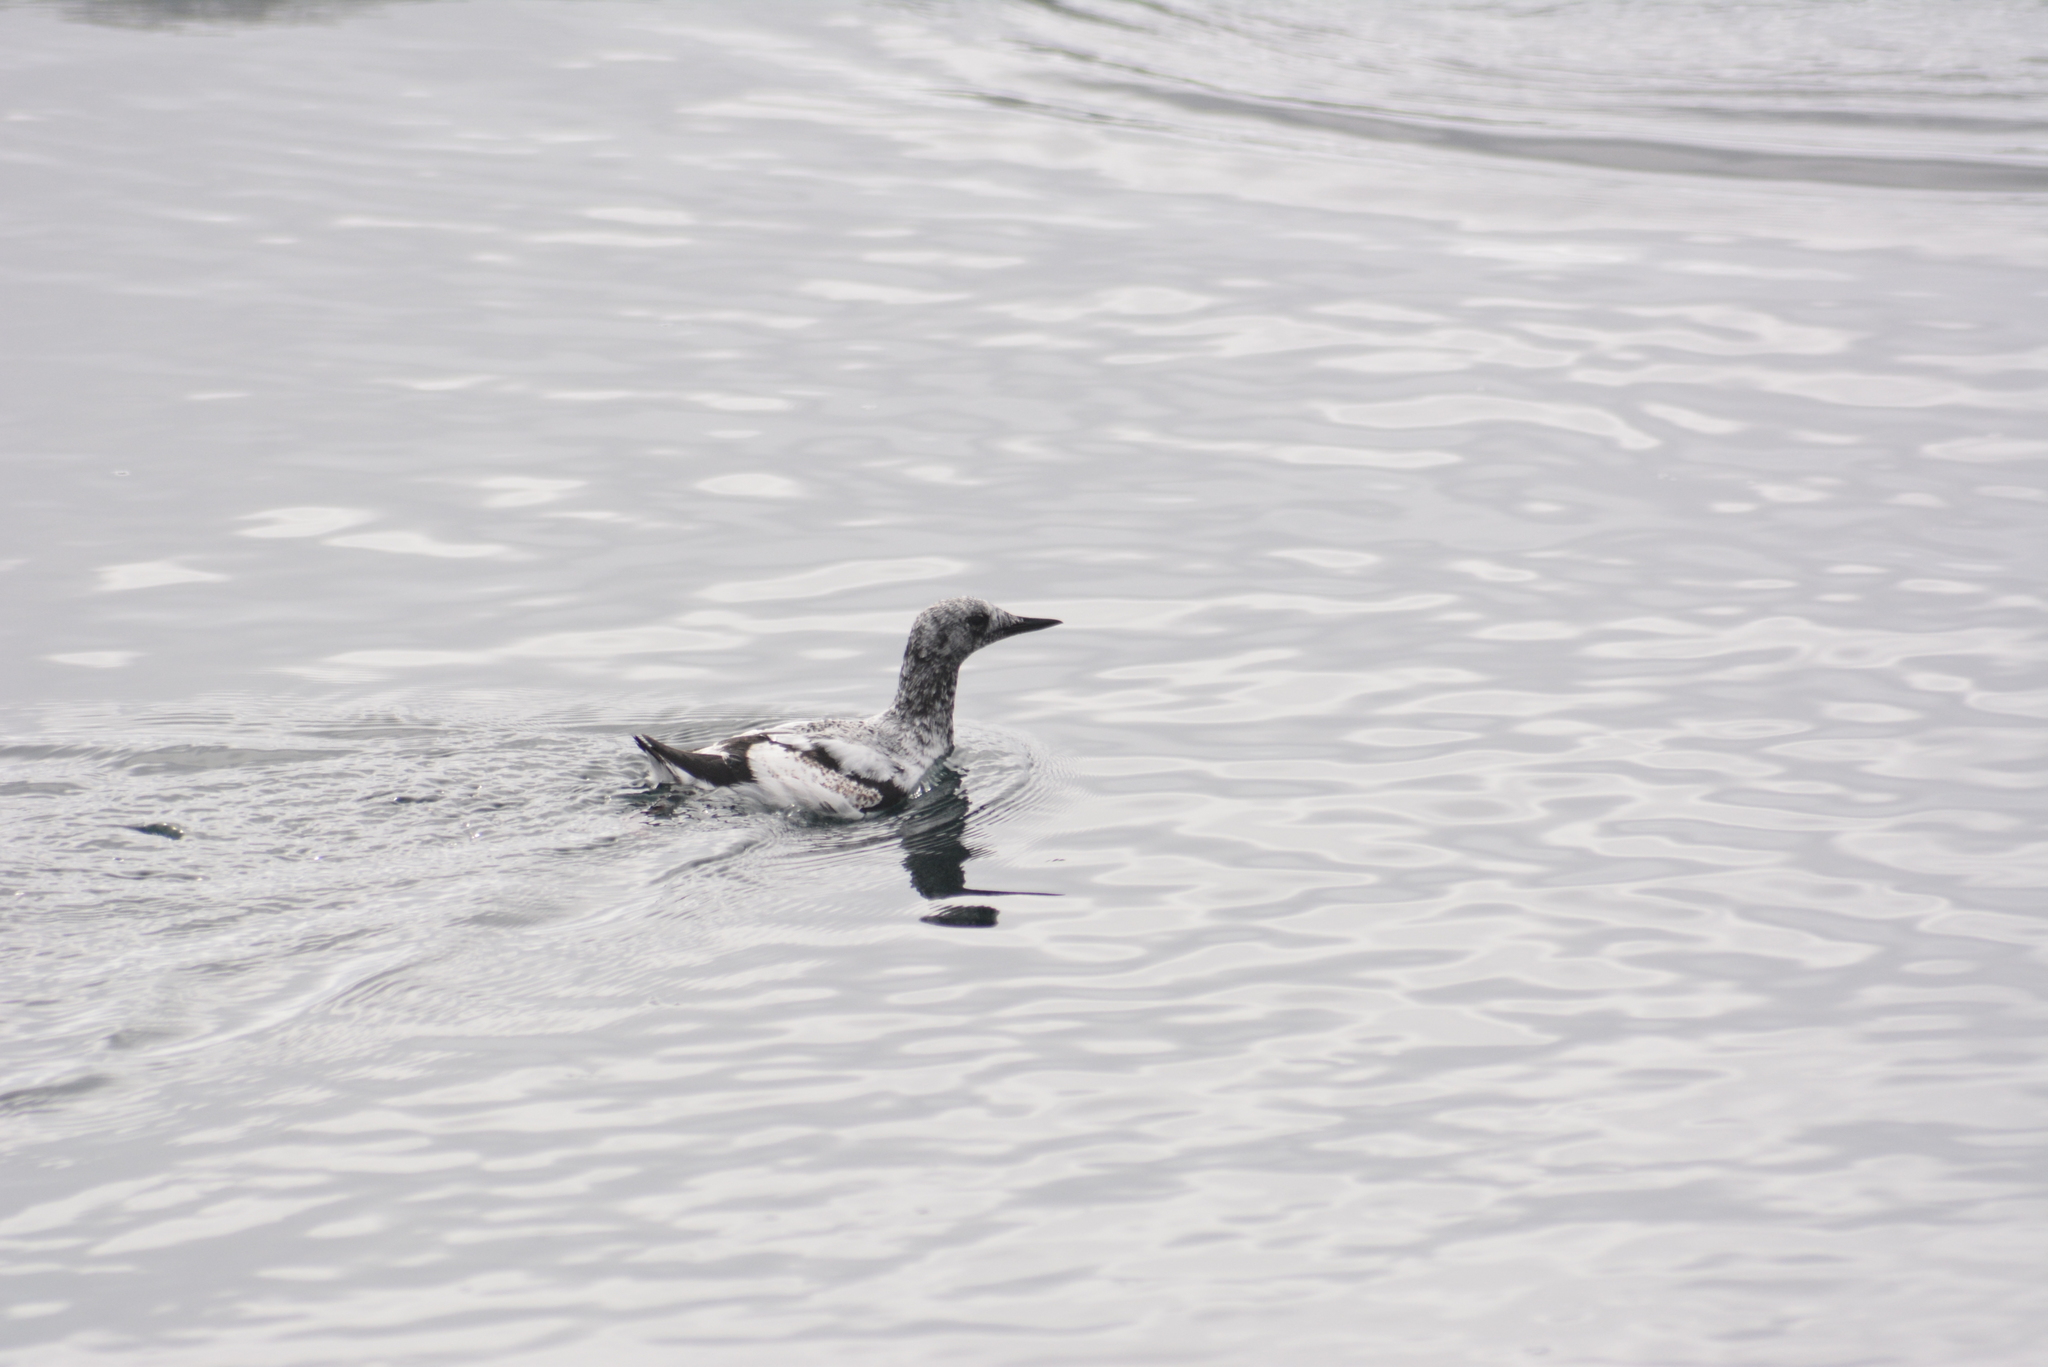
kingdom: Animalia
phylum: Chordata
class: Aves
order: Charadriiformes
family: Alcidae
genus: Cepphus
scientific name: Cepphus columba
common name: Pigeon guillemot
